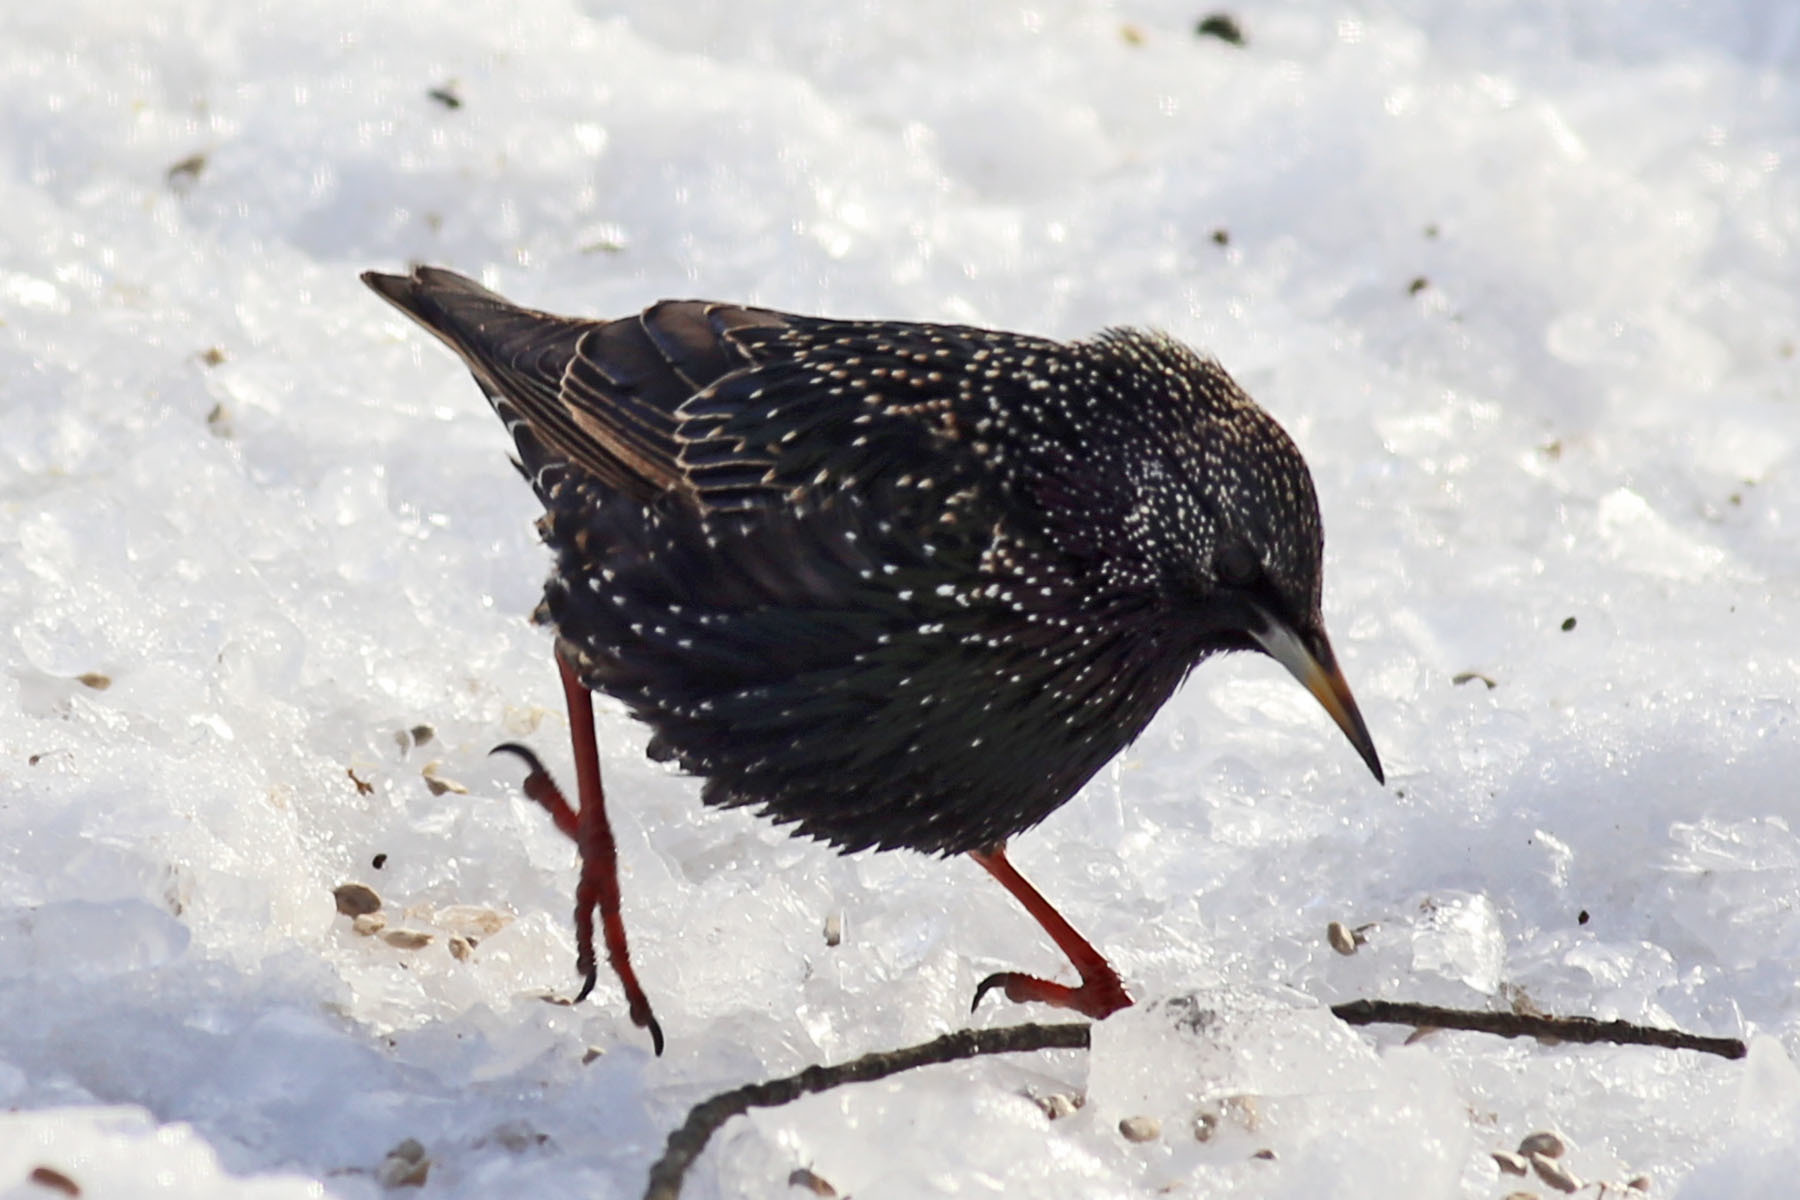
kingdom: Animalia
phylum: Chordata
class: Aves
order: Passeriformes
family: Sturnidae
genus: Sturnus
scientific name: Sturnus vulgaris
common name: Common starling
